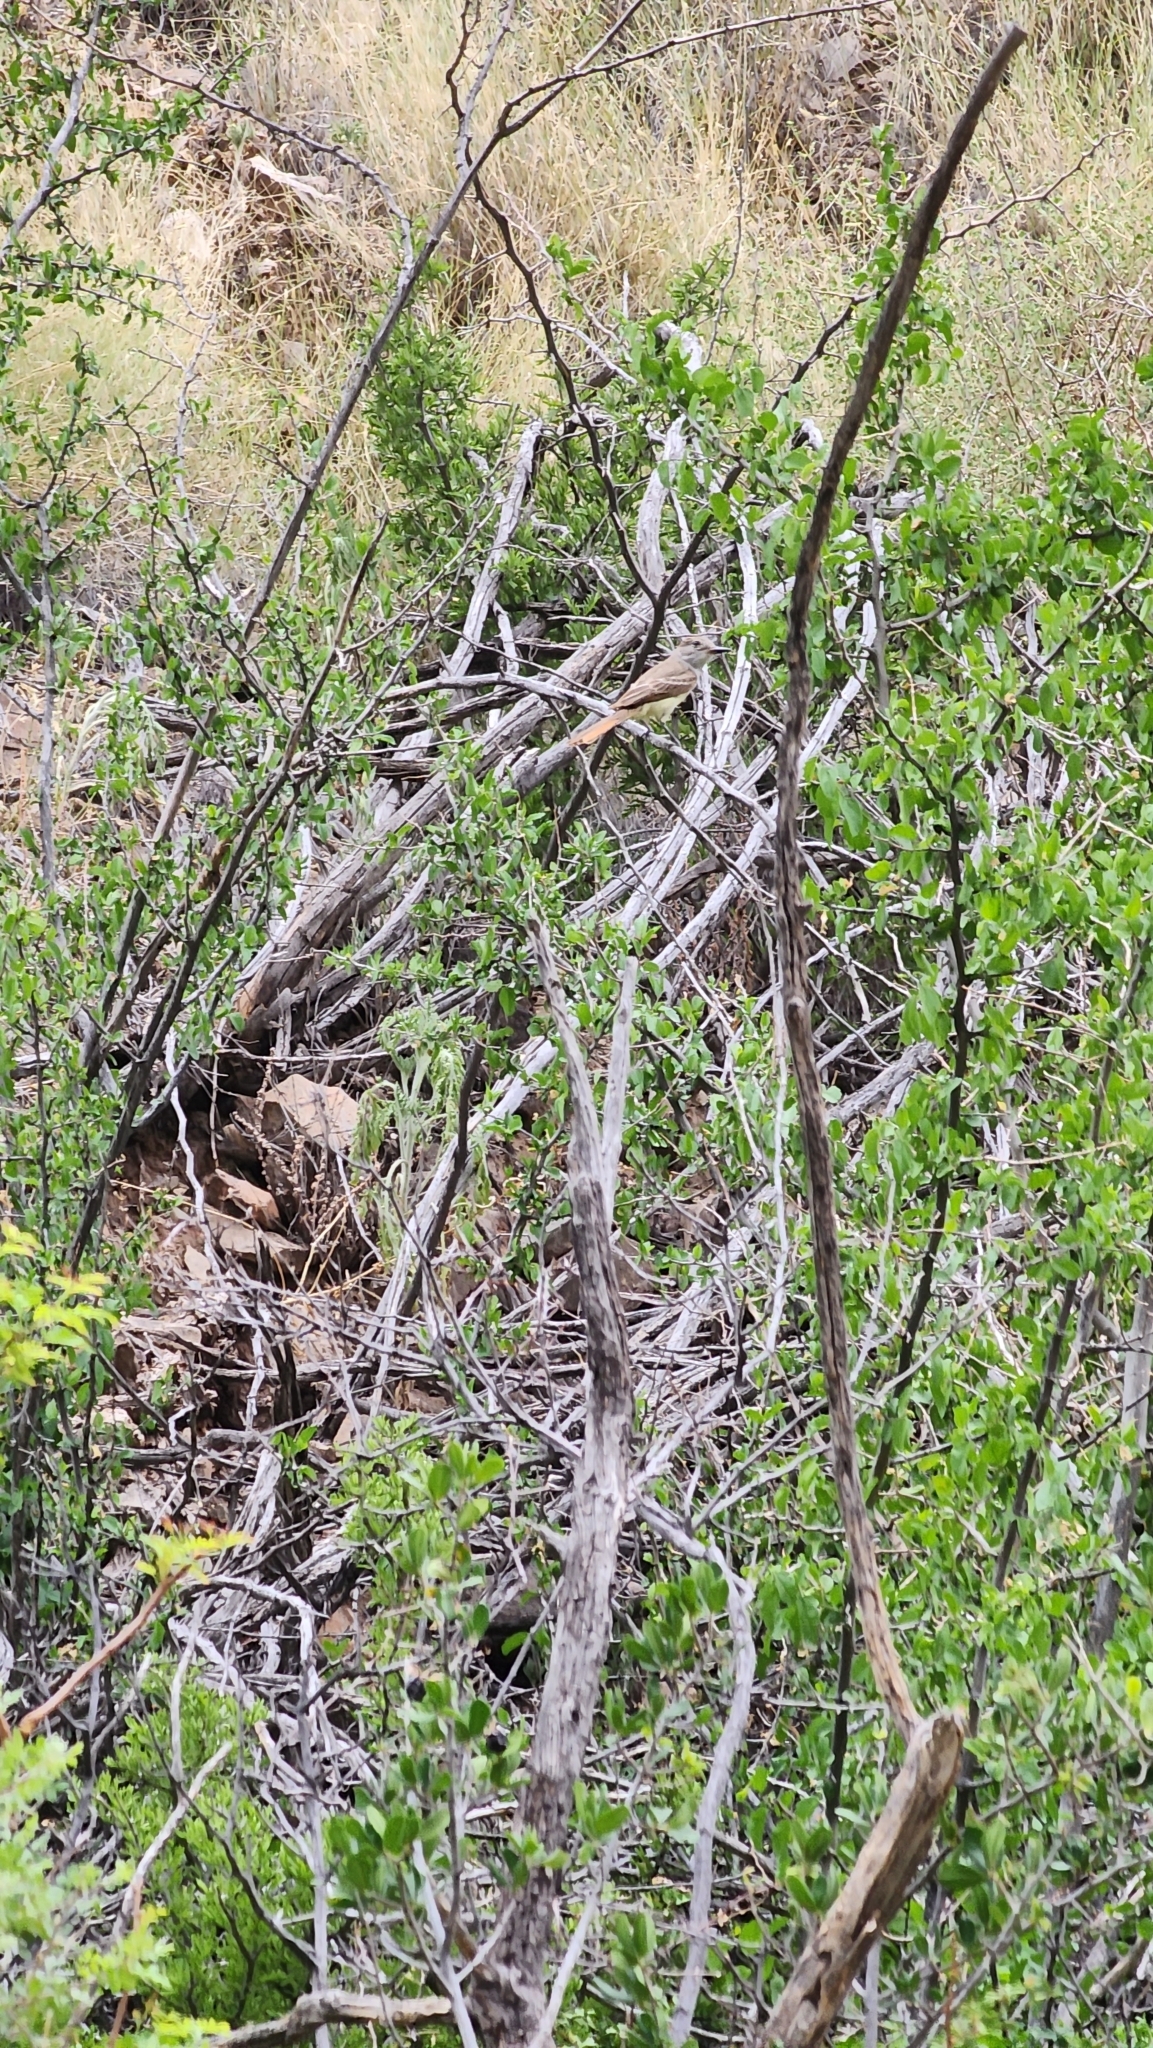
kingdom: Animalia
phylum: Chordata
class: Aves
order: Passeriformes
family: Tyrannidae
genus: Myiarchus
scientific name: Myiarchus cinerascens
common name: Ash-throated flycatcher
